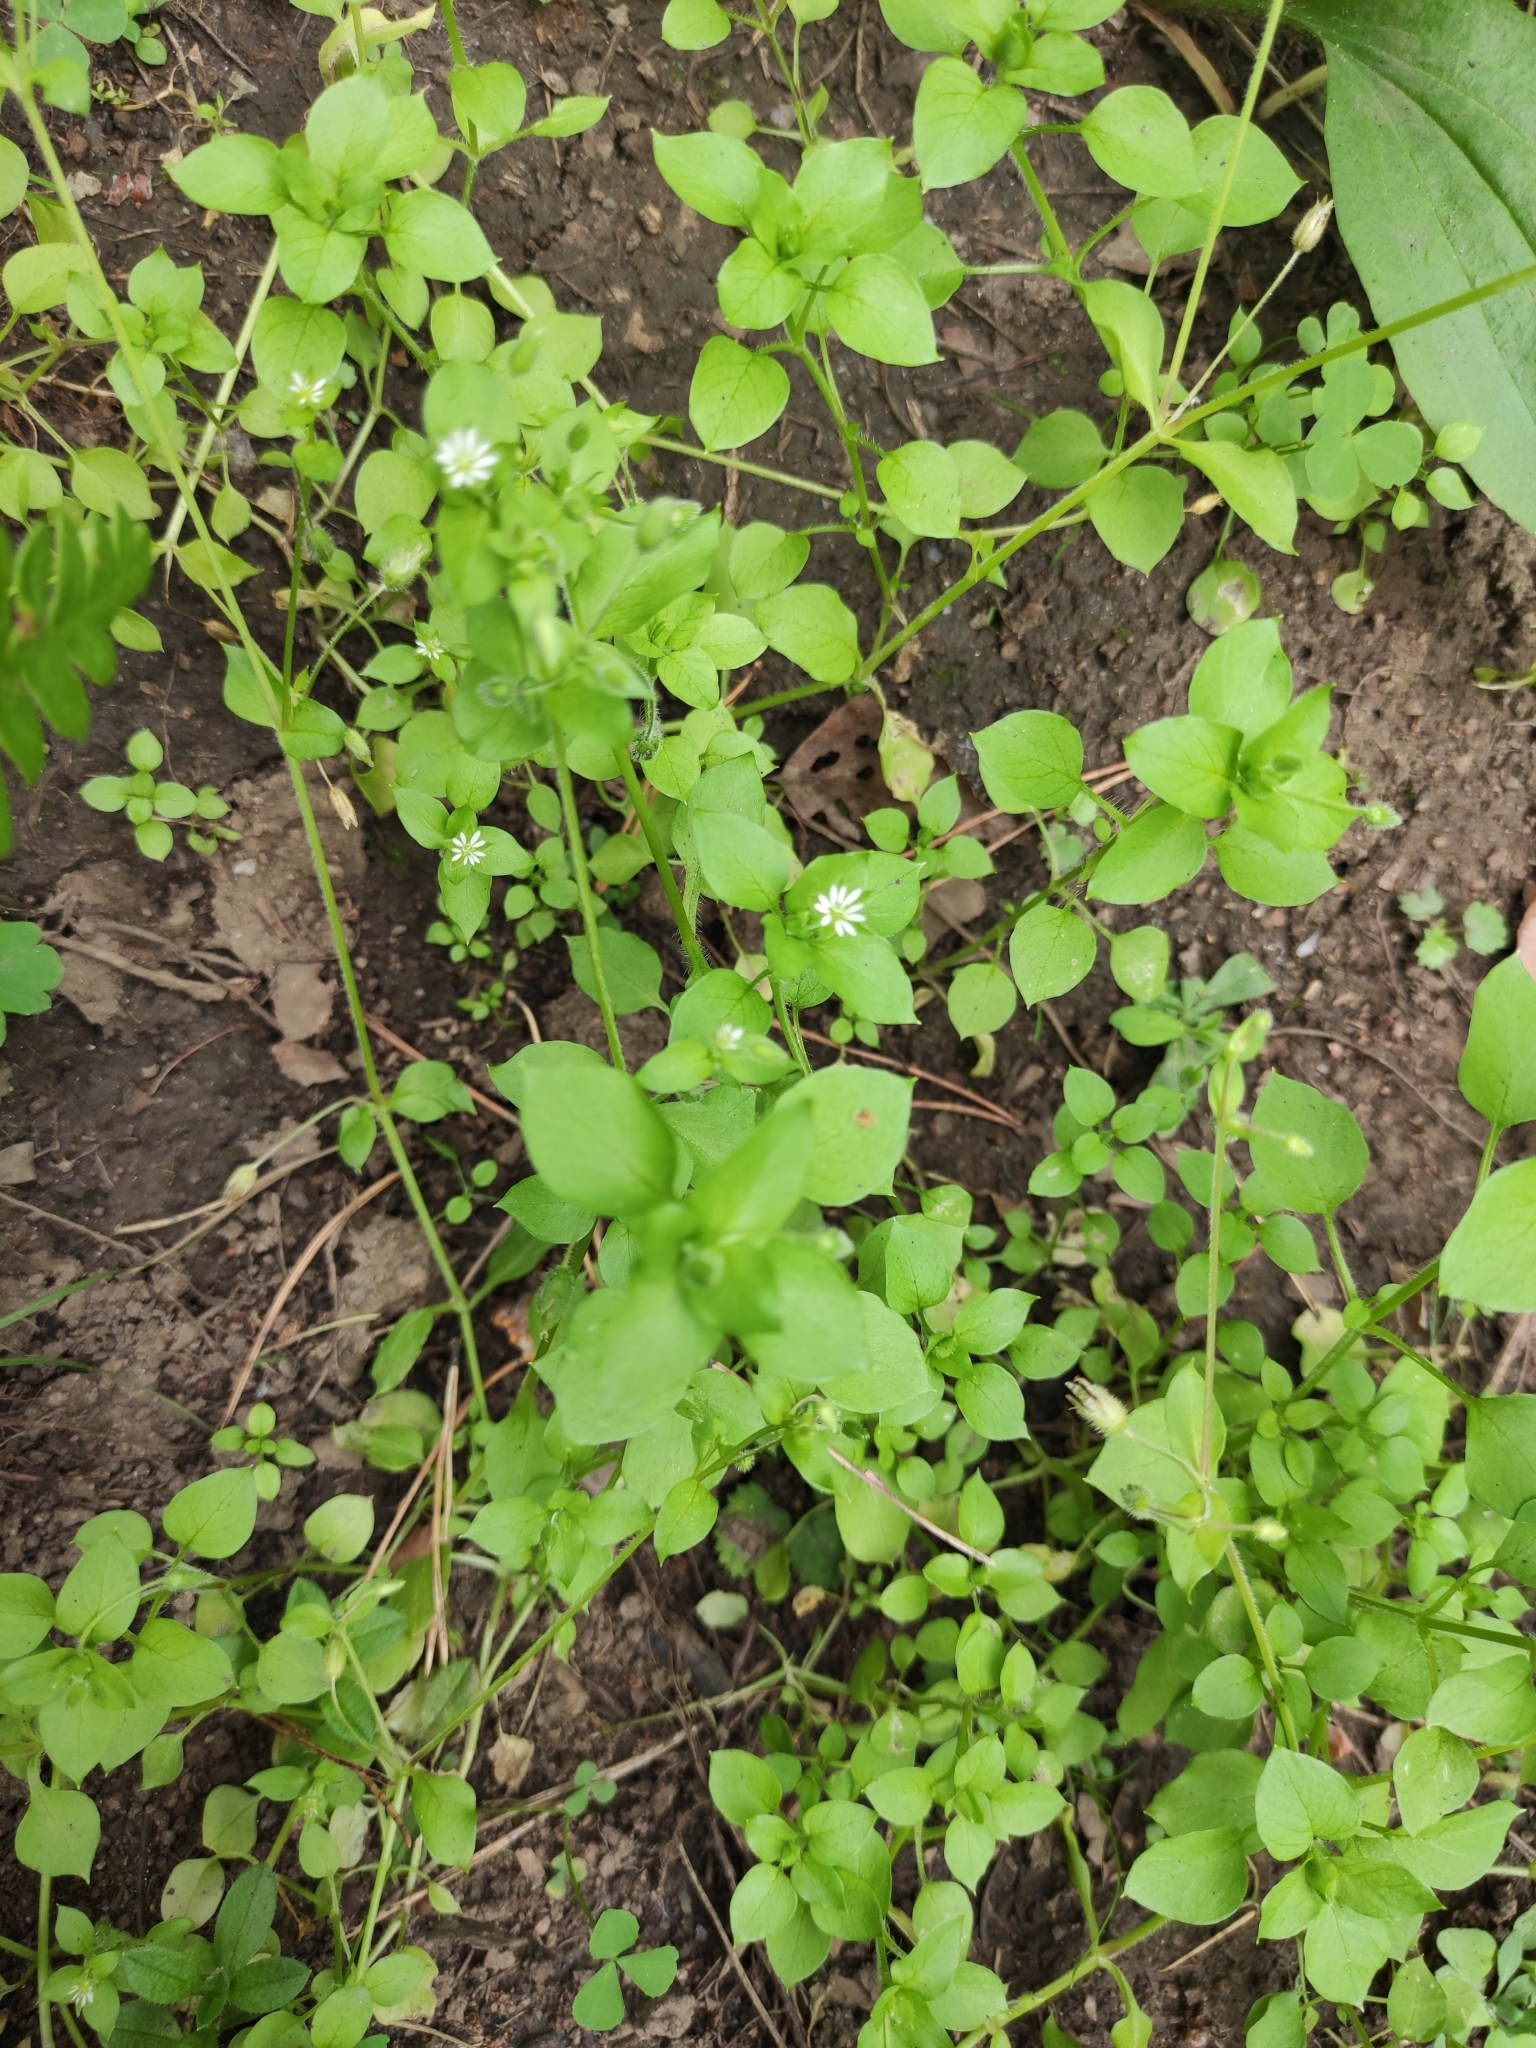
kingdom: Plantae
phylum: Tracheophyta
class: Magnoliopsida
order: Caryophyllales
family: Caryophyllaceae
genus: Stellaria
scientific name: Stellaria media
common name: Common chickweed
